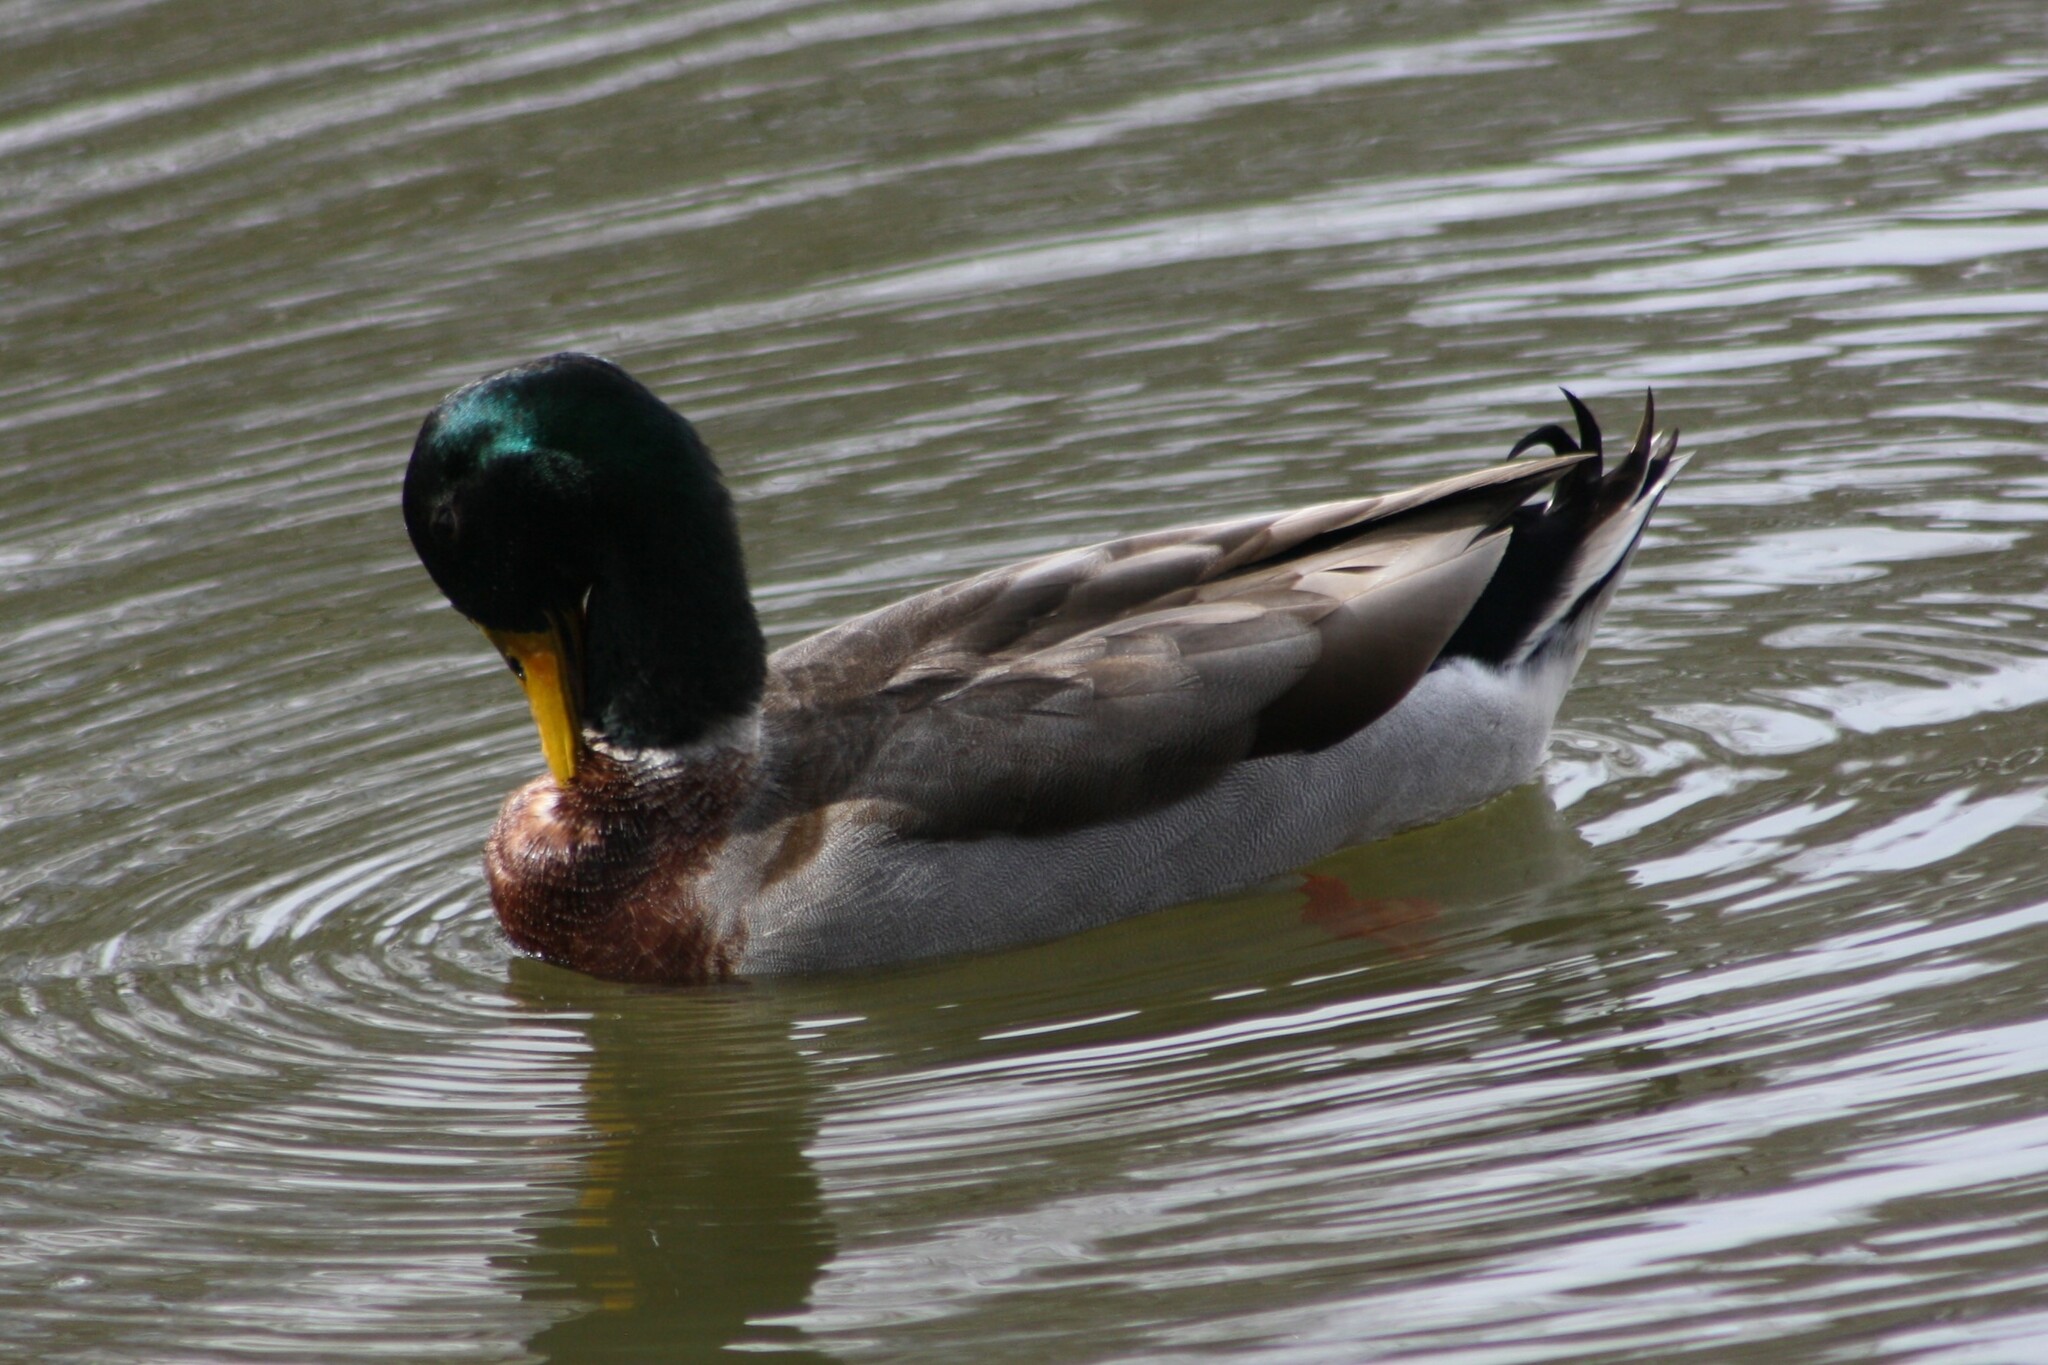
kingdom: Animalia
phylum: Chordata
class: Aves
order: Anseriformes
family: Anatidae
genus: Anas
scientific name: Anas platyrhynchos
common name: Mallard
